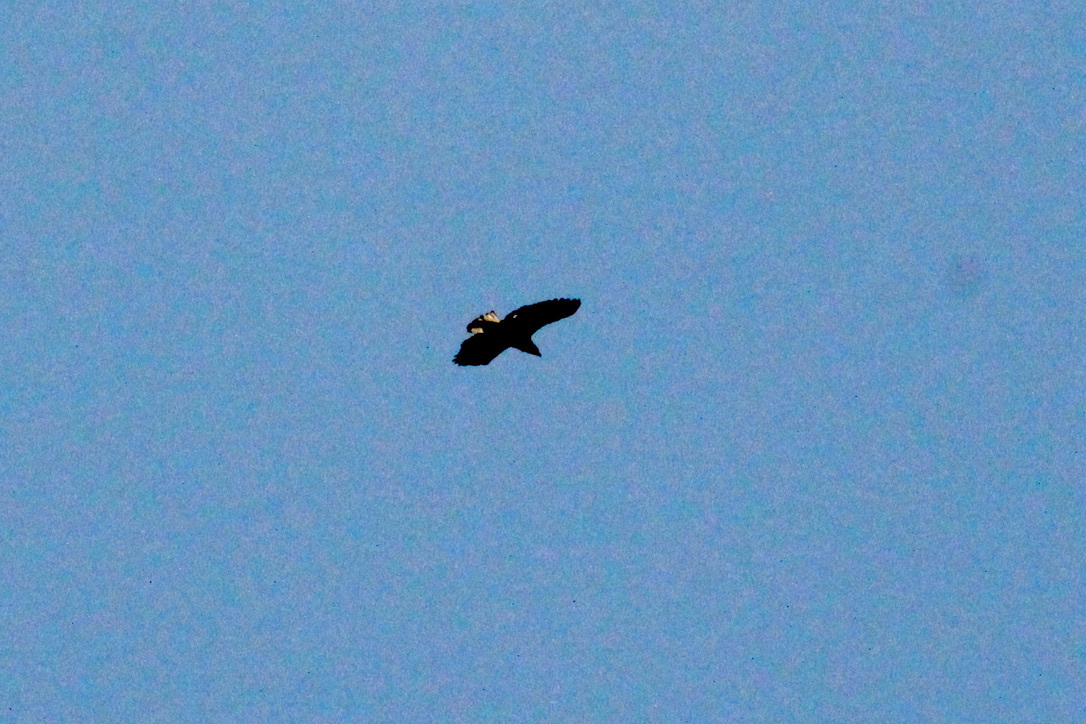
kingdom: Animalia
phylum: Chordata
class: Aves
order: Accipitriformes
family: Accipitridae
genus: Haliaeetus
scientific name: Haliaeetus leucocephalus
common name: Bald eagle
